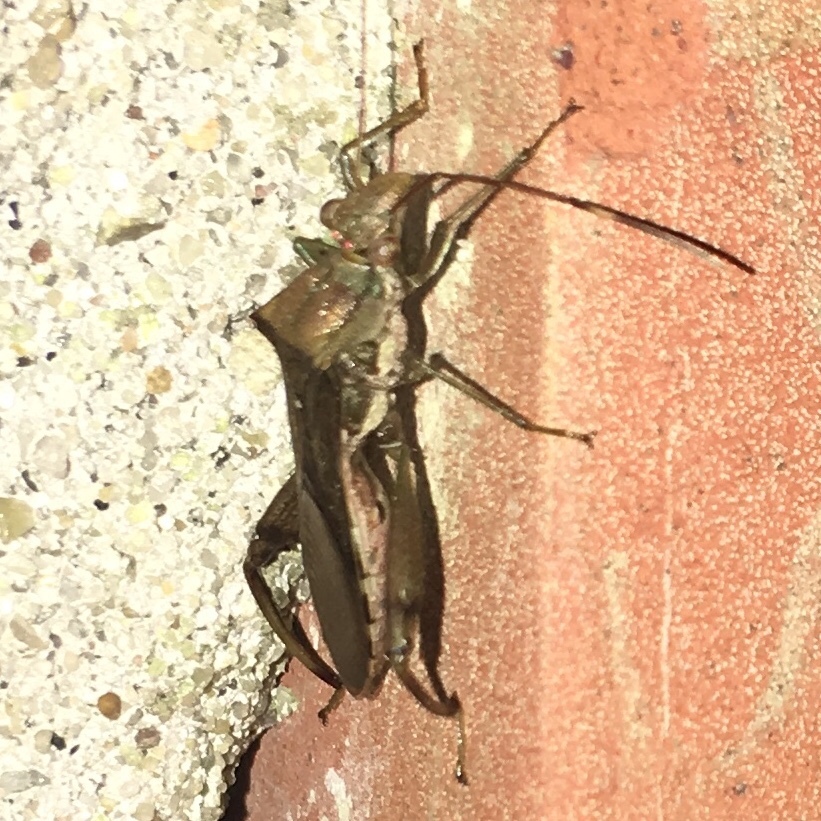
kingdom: Animalia
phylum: Arthropoda
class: Insecta
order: Hemiptera
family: Alydidae
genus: Hyalymenus
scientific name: Hyalymenus tarsatus
